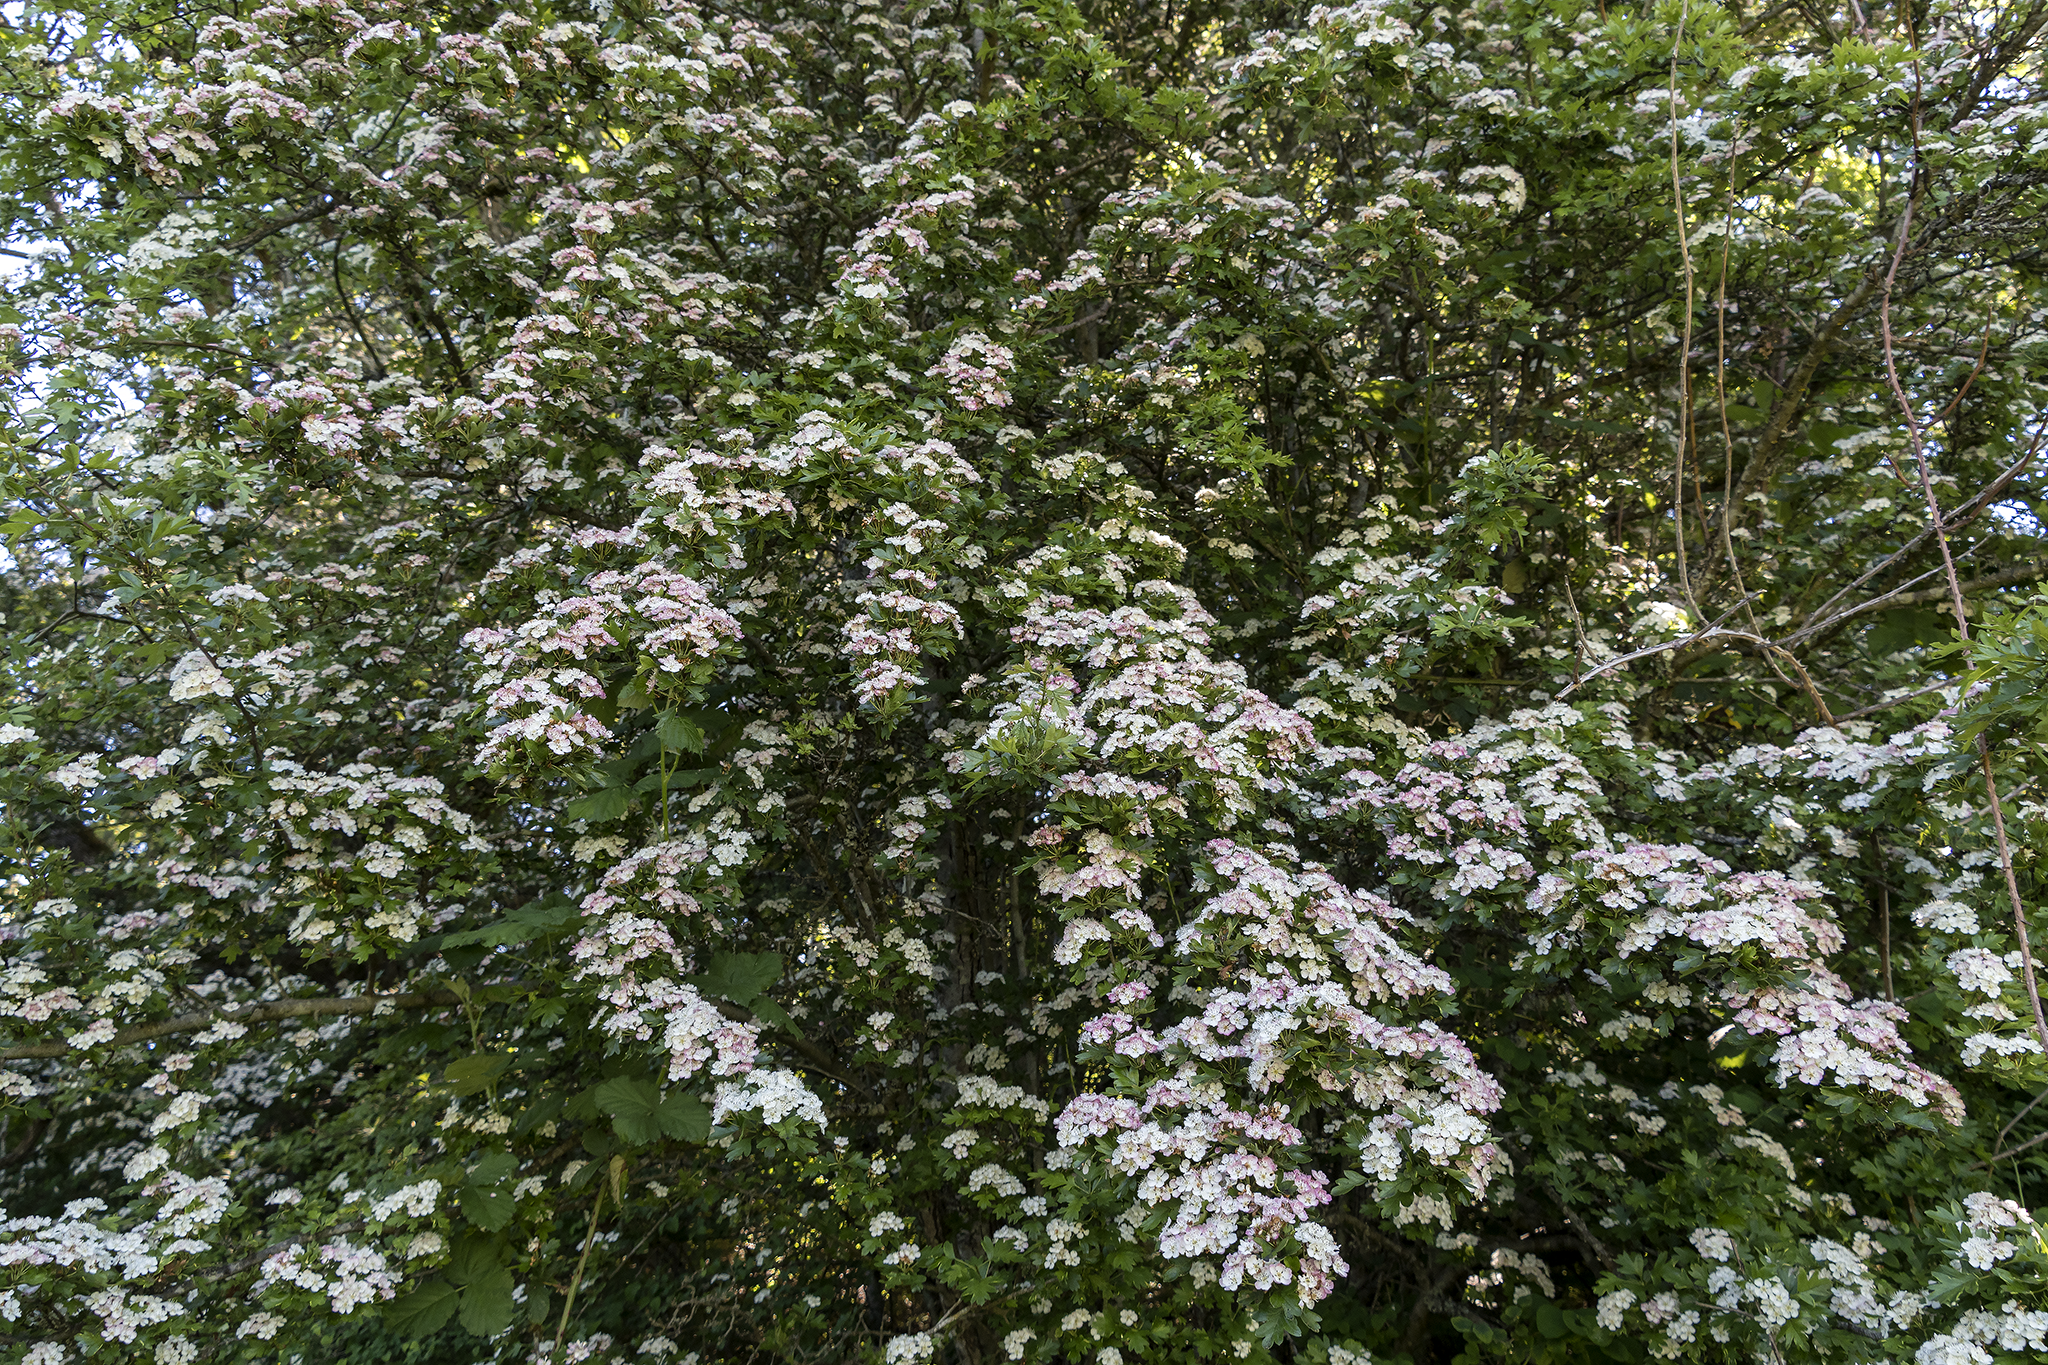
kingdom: Plantae
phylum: Tracheophyta
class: Magnoliopsida
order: Rosales
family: Rosaceae
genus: Crataegus
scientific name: Crataegus monogyna
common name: Hawthorn
